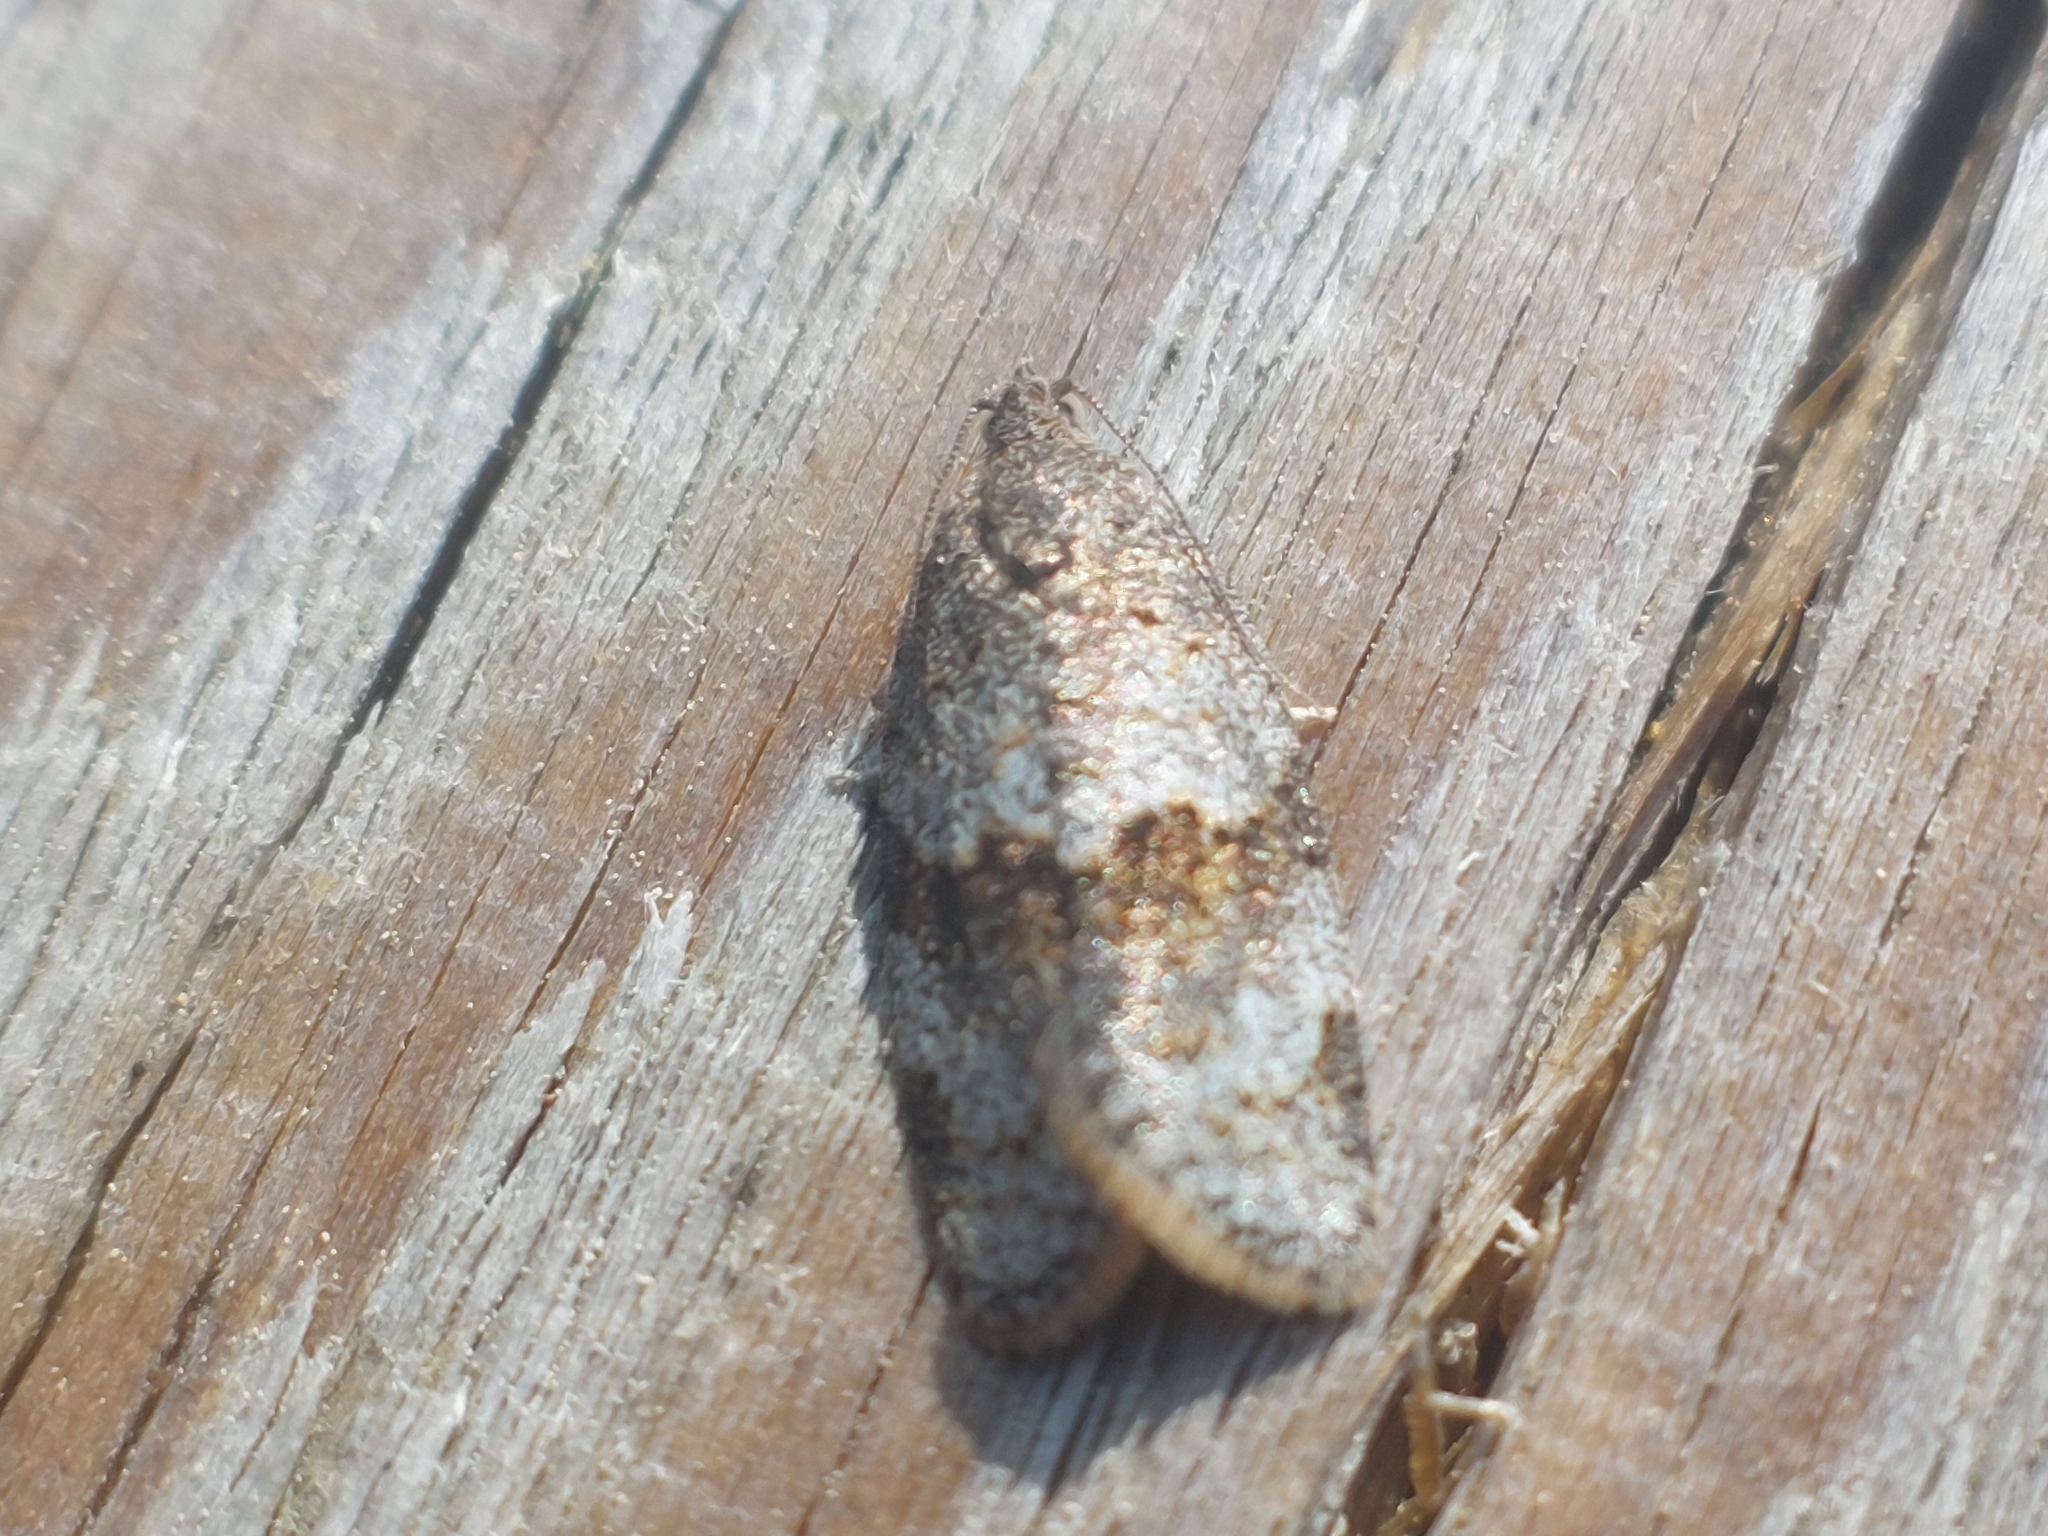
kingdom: Animalia
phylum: Arthropoda
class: Insecta
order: Lepidoptera
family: Tortricidae
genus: Syndemis
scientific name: Syndemis musculana
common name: Dark-barred twist
